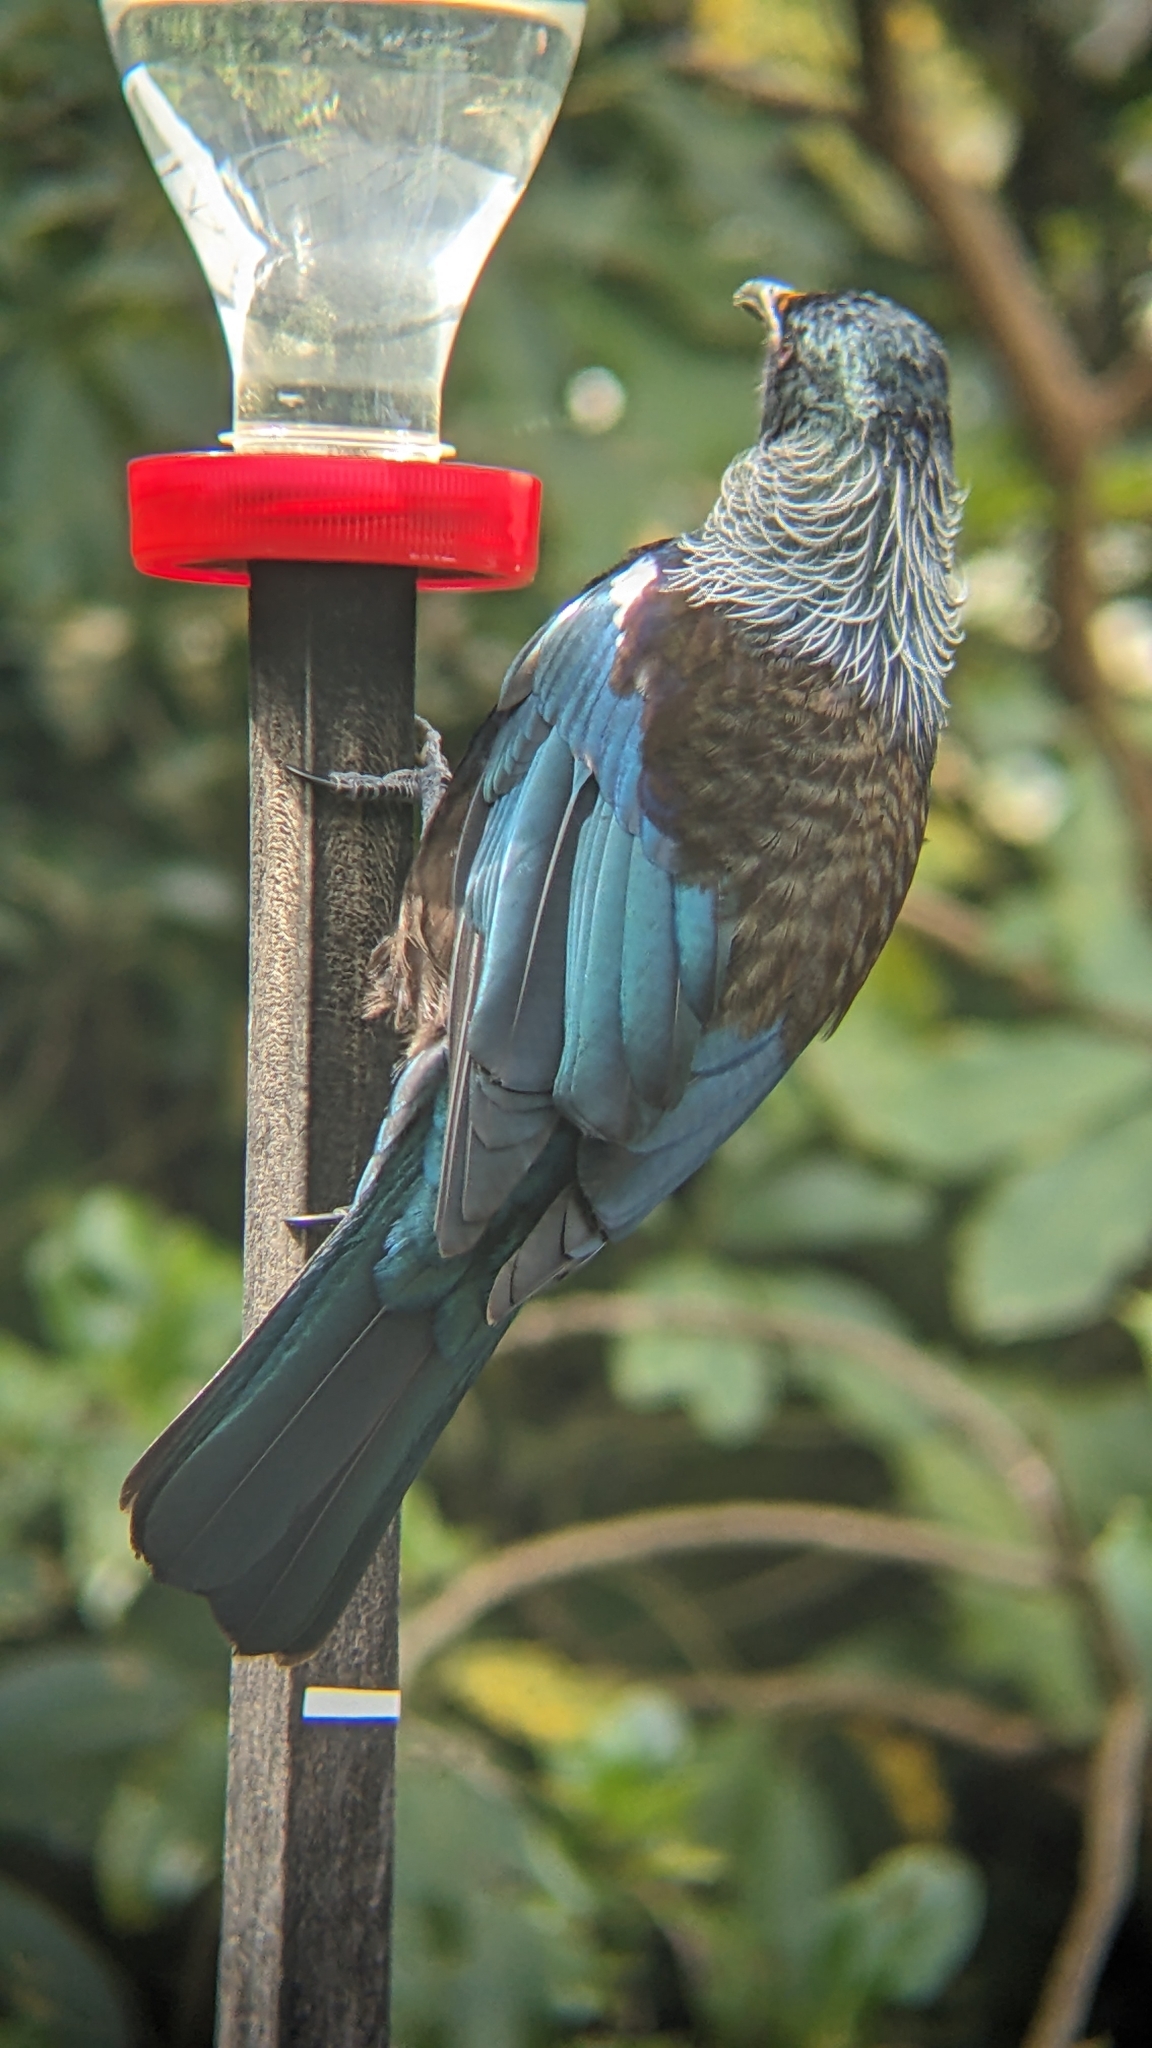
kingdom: Animalia
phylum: Chordata
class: Aves
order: Passeriformes
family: Meliphagidae
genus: Prosthemadera
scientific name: Prosthemadera novaeseelandiae
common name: Tui
